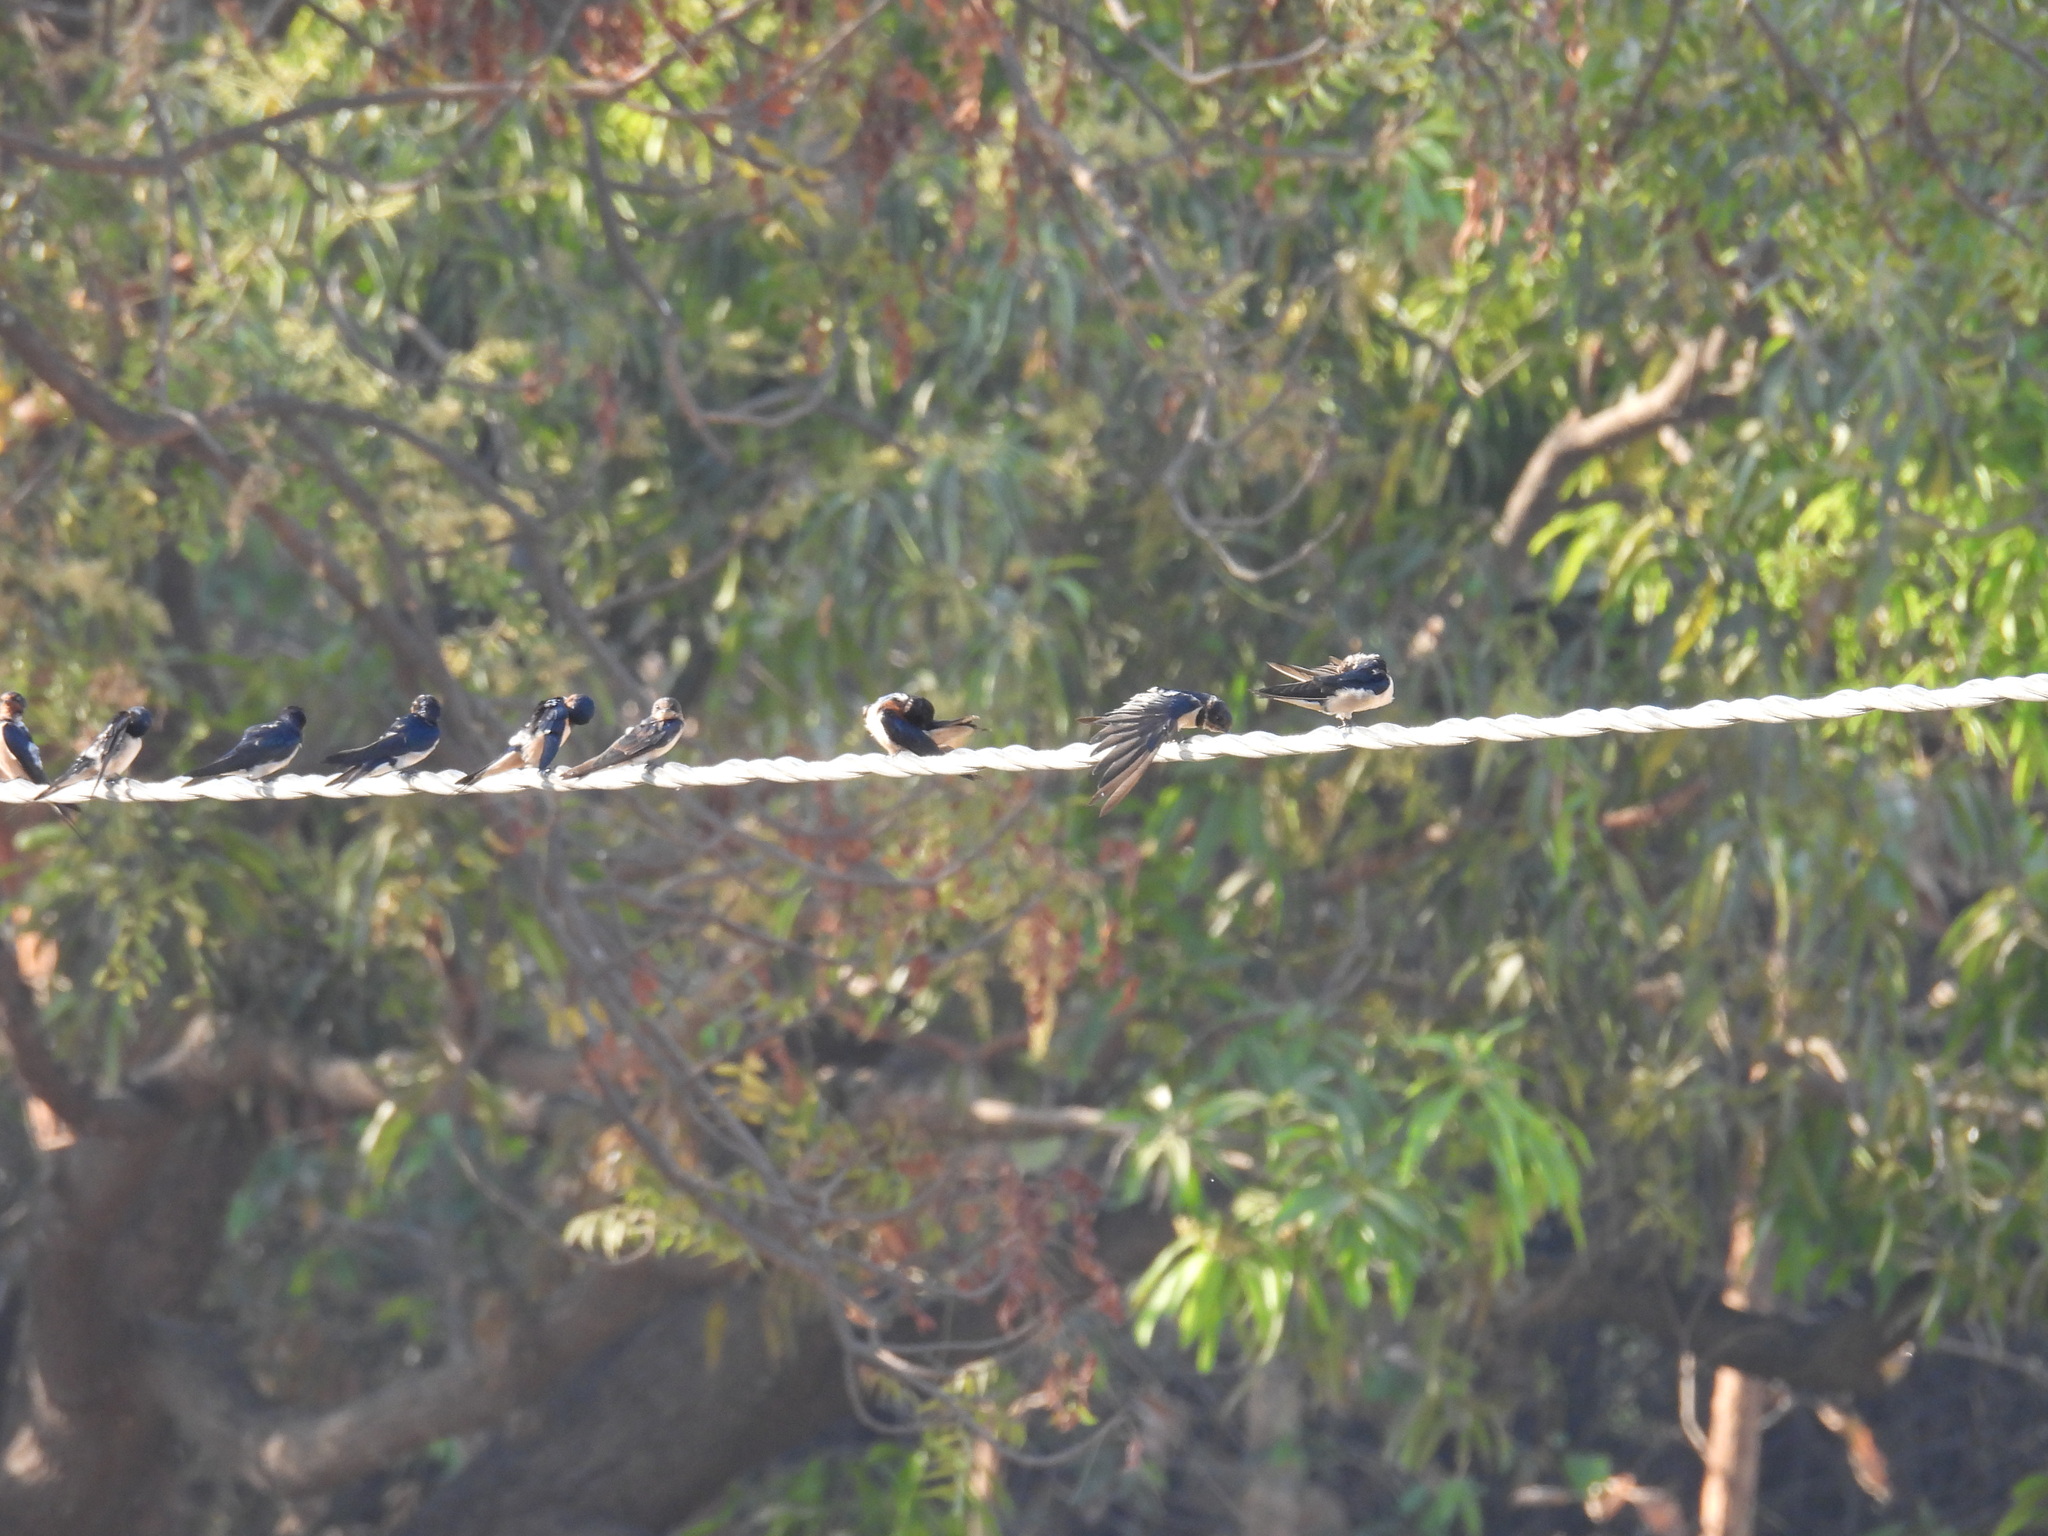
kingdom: Animalia
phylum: Chordata
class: Aves
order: Passeriformes
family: Hirundinidae
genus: Hirundo
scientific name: Hirundo rustica
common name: Barn swallow
